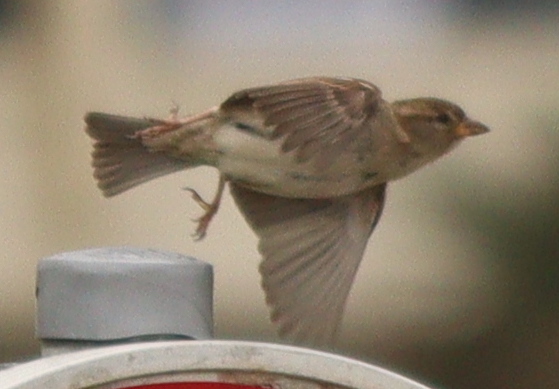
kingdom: Animalia
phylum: Chordata
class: Aves
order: Passeriformes
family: Passeridae
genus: Passer
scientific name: Passer domesticus
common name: House sparrow
